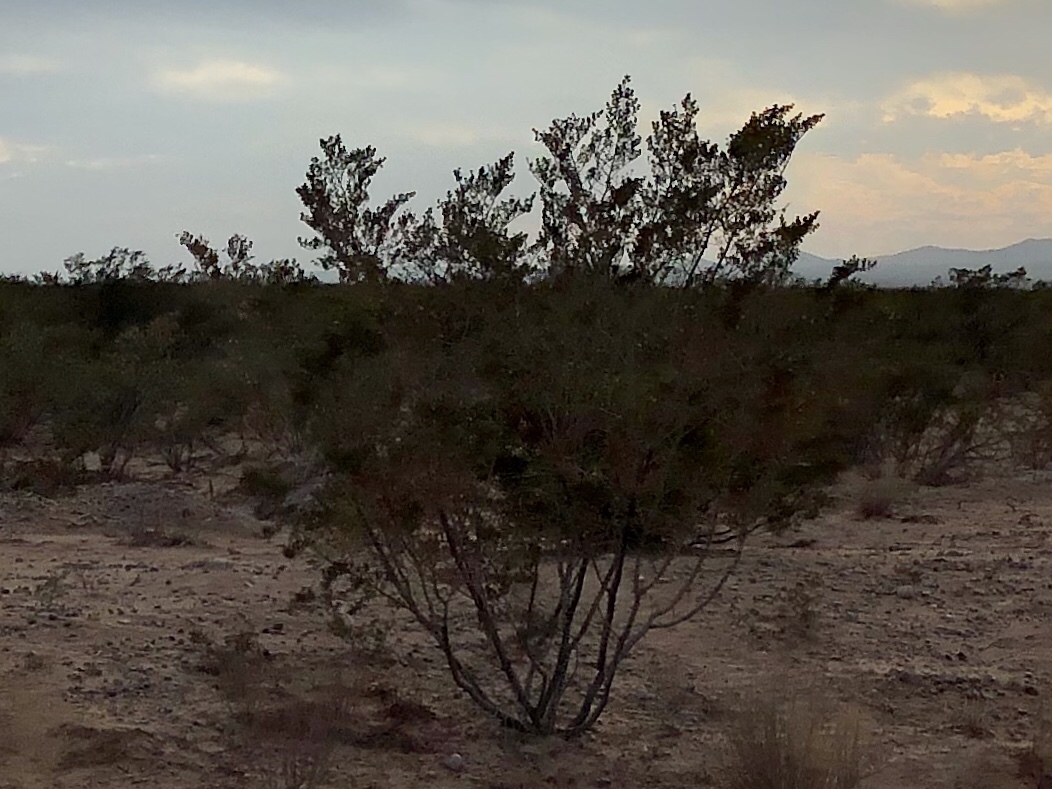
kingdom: Plantae
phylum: Tracheophyta
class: Magnoliopsida
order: Zygophyllales
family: Zygophyllaceae
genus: Larrea
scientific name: Larrea tridentata
